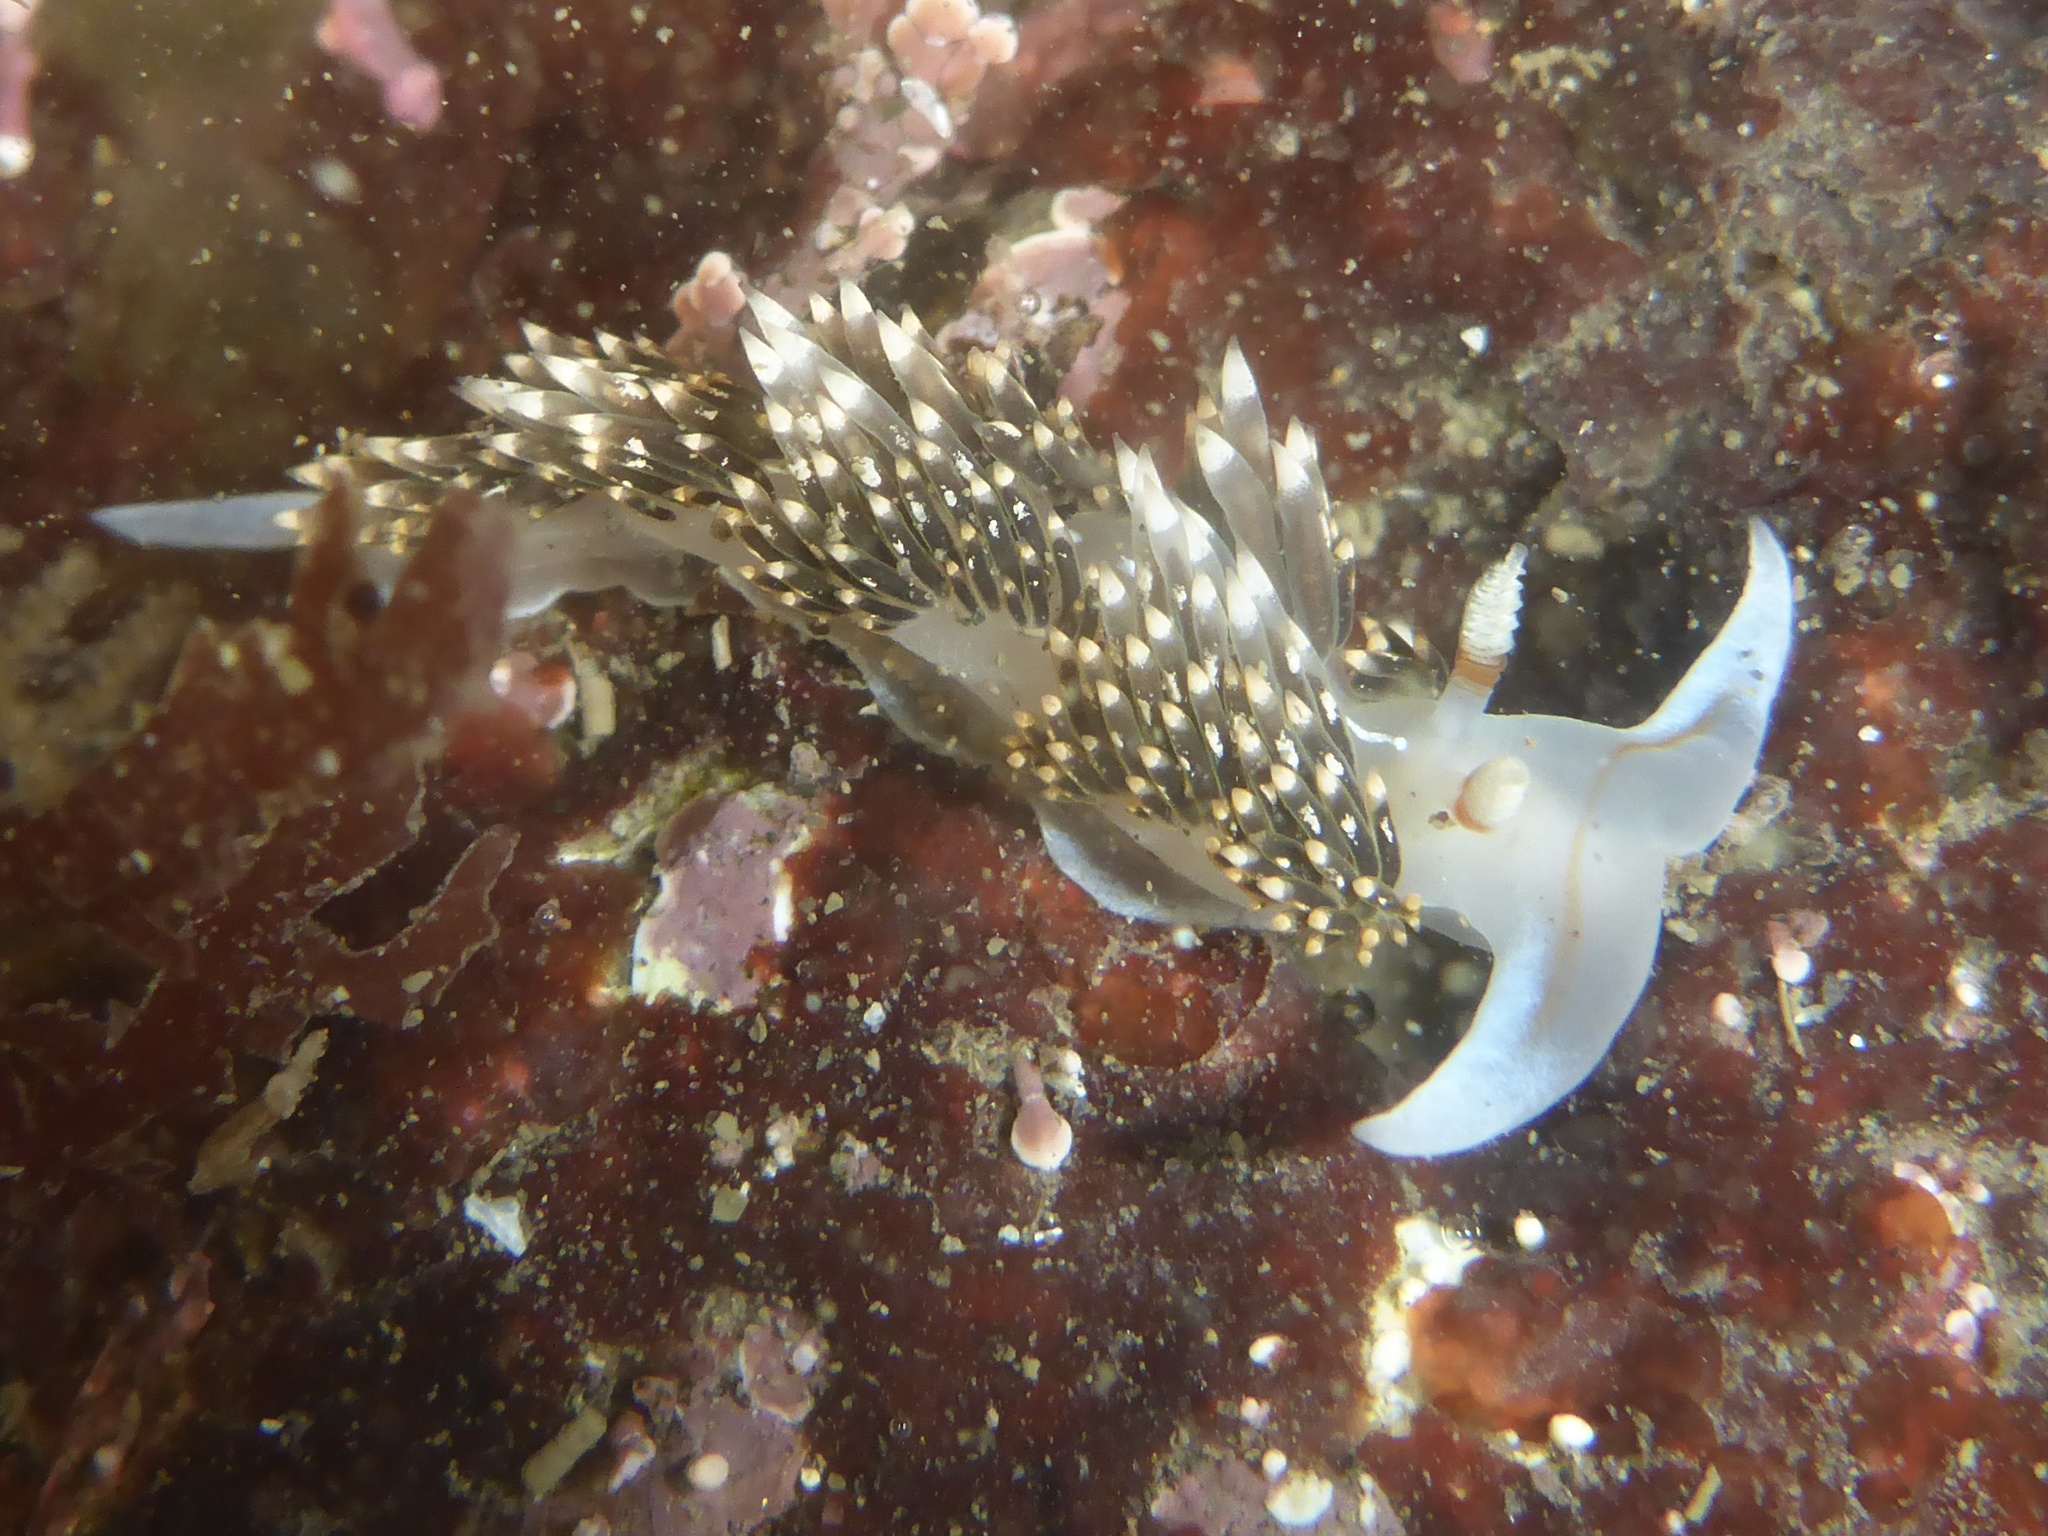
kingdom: Animalia
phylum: Mollusca
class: Gastropoda
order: Nudibranchia
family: Facelinidae
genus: Phidiana
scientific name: Phidiana hiltoni
